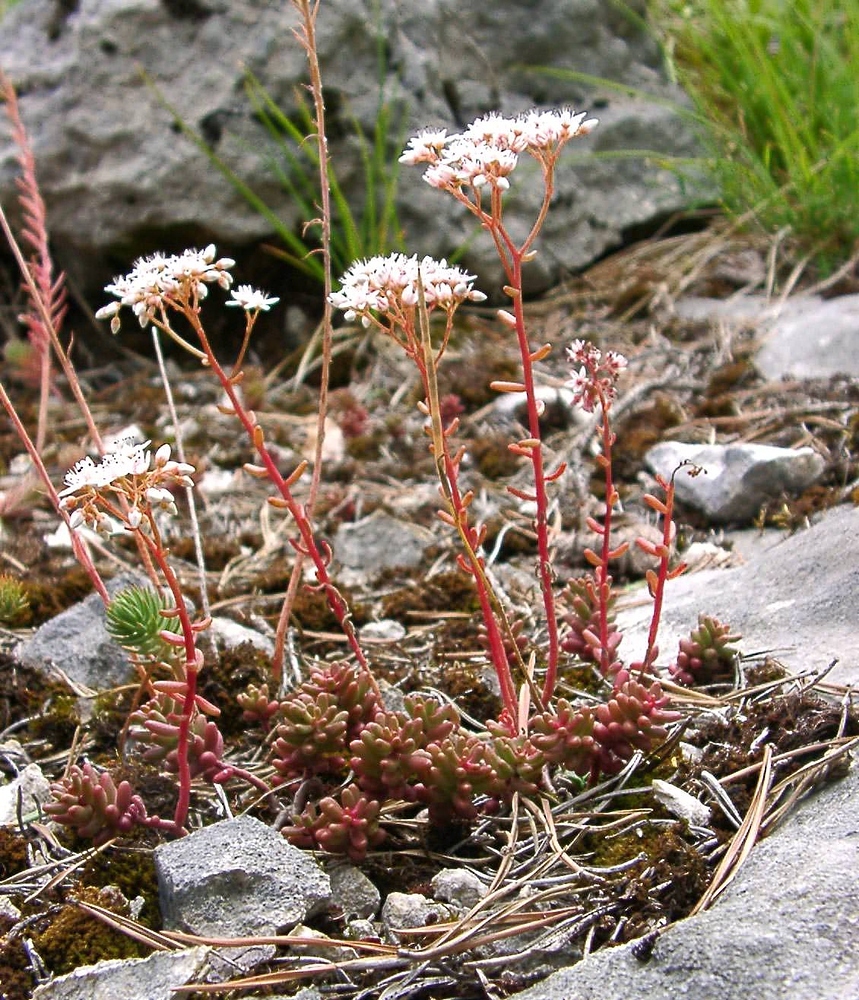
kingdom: Plantae
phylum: Tracheophyta
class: Magnoliopsida
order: Saxifragales
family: Crassulaceae
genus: Sedum
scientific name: Sedum album
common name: White stonecrop
